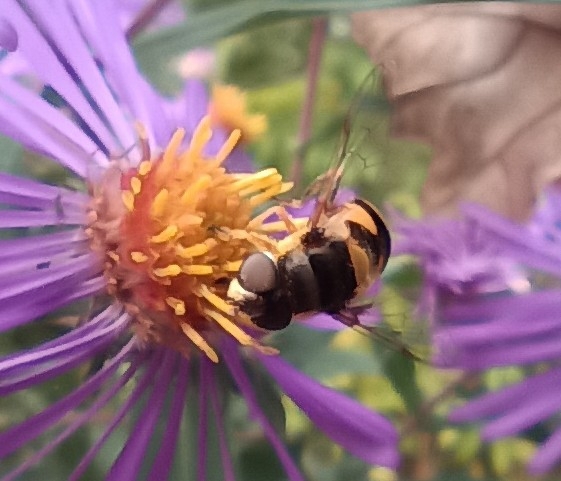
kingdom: Animalia
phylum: Arthropoda
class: Insecta
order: Diptera
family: Syrphidae
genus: Eristalis
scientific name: Eristalis transversa
